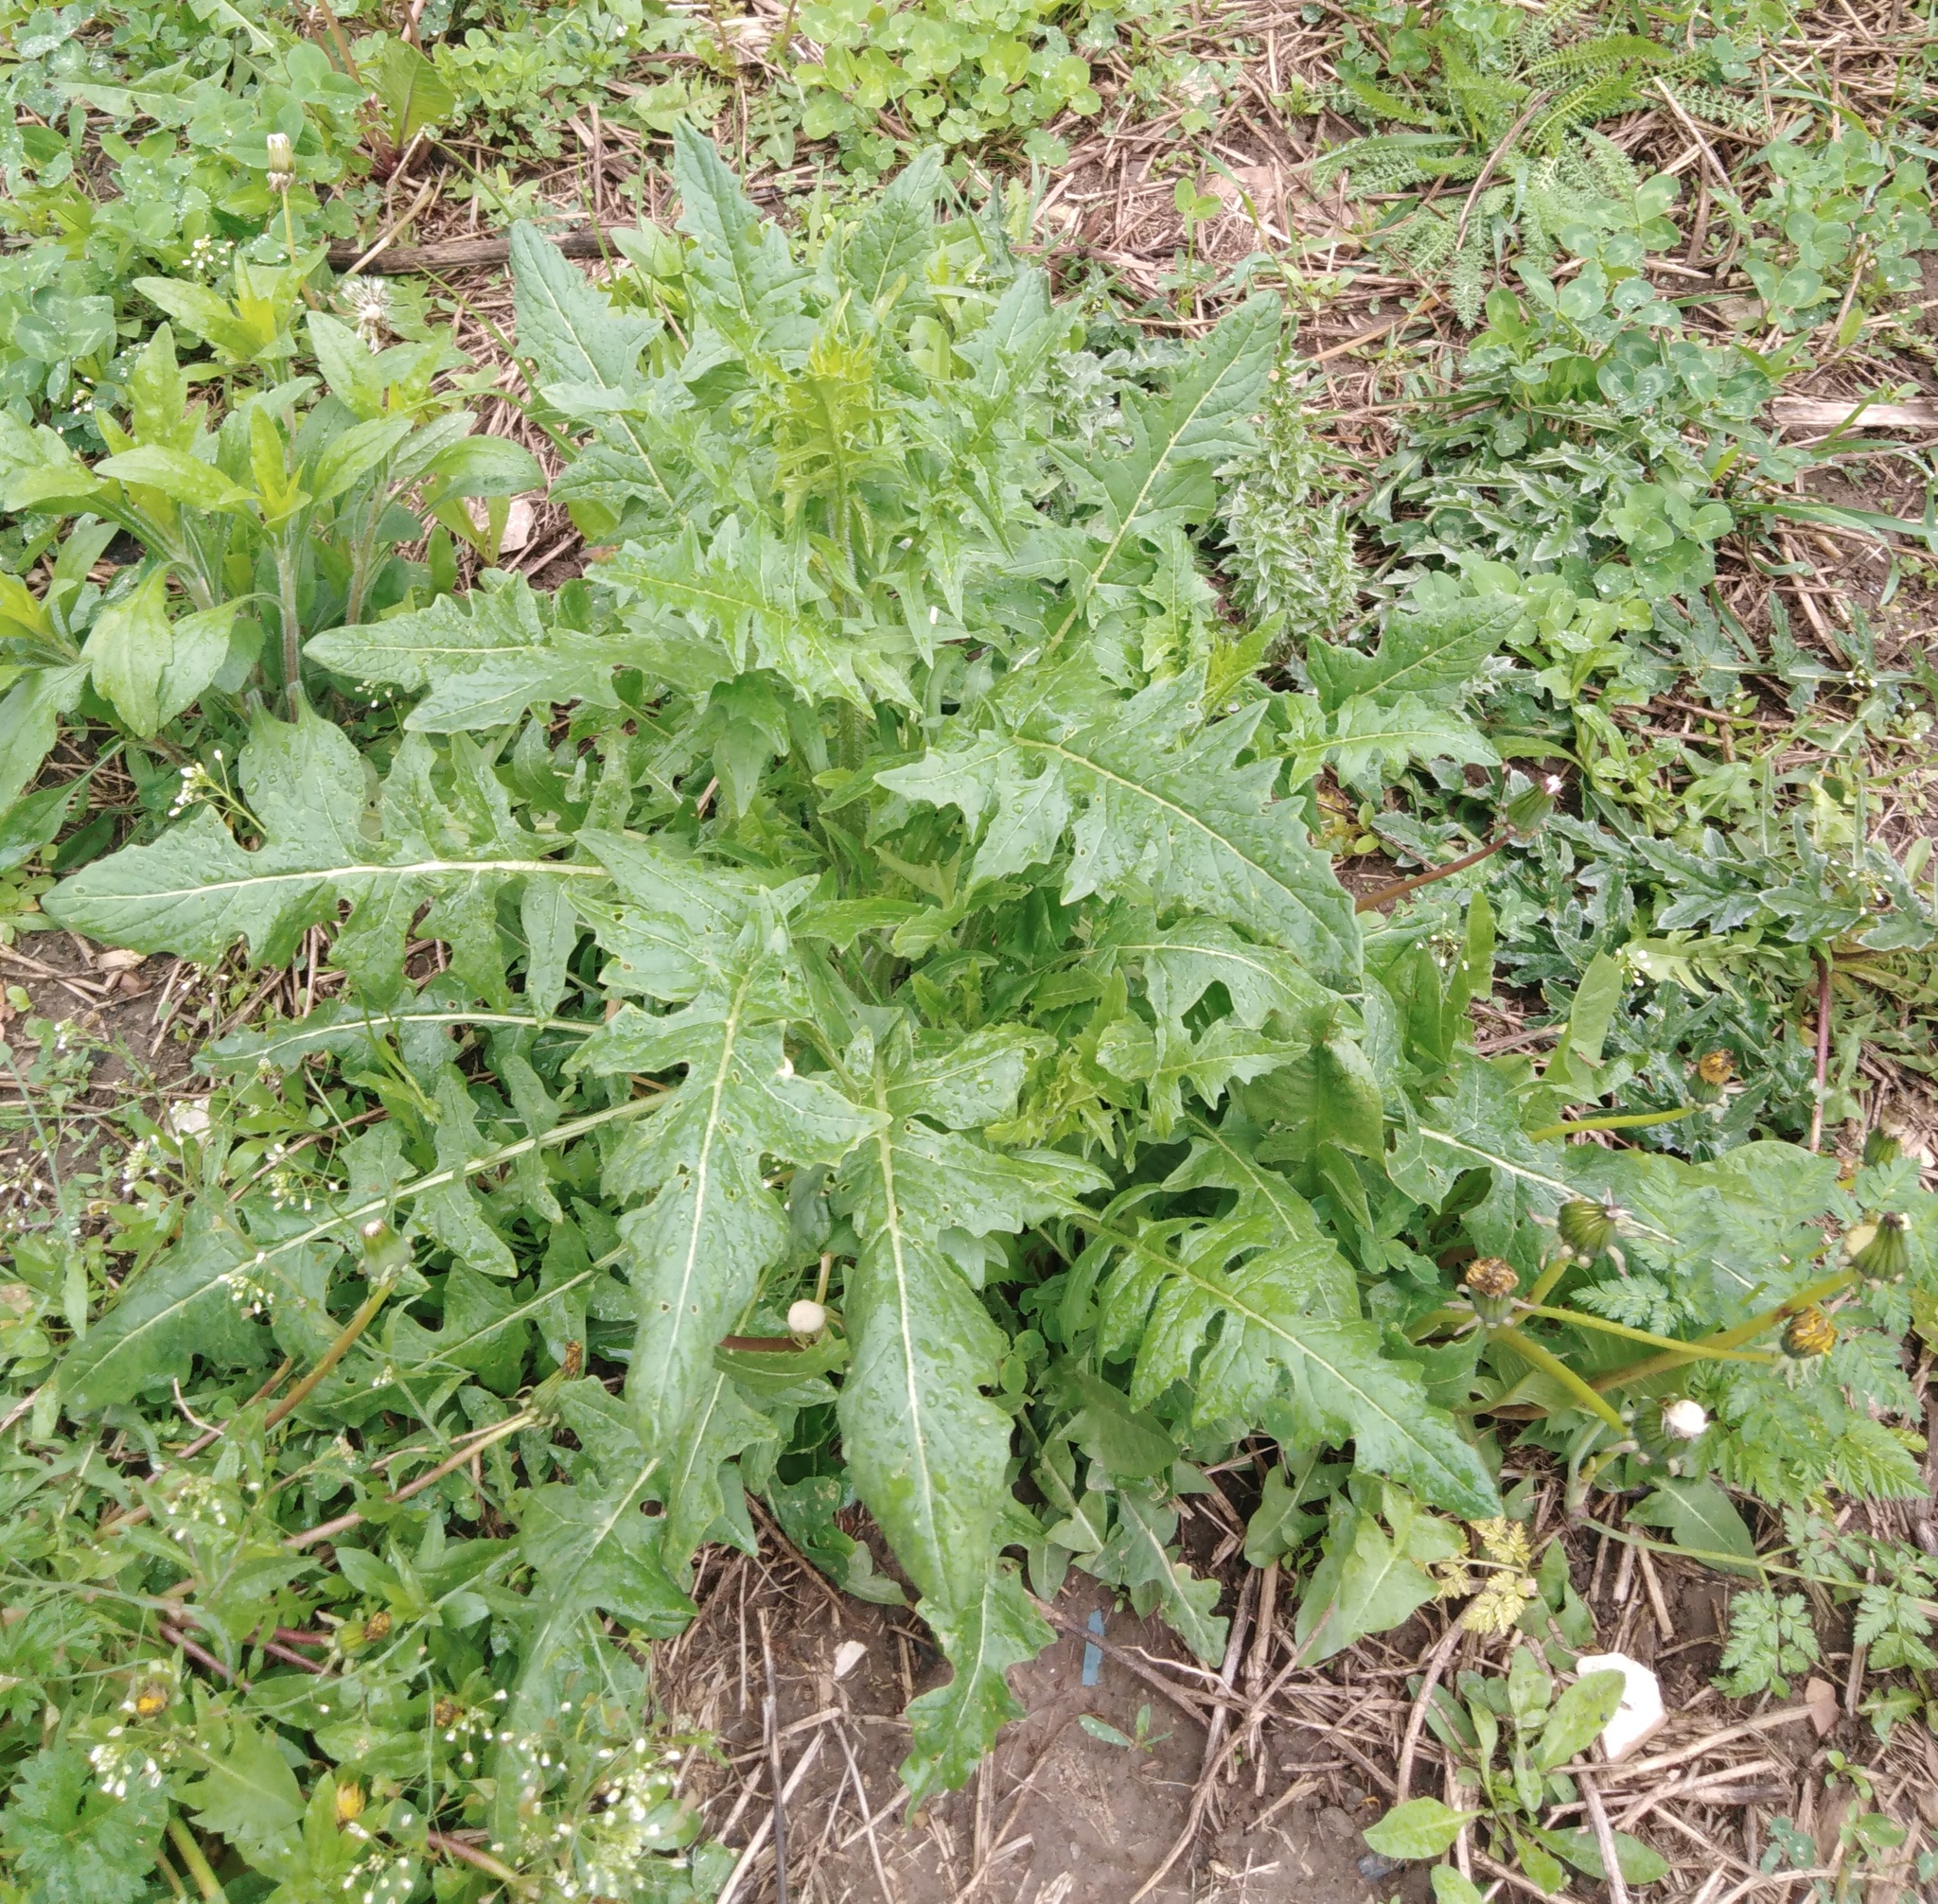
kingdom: Plantae
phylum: Tracheophyta
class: Magnoliopsida
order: Brassicales
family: Brassicaceae
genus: Sisymbrium
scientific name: Sisymbrium loeselii
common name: False london-rocket
